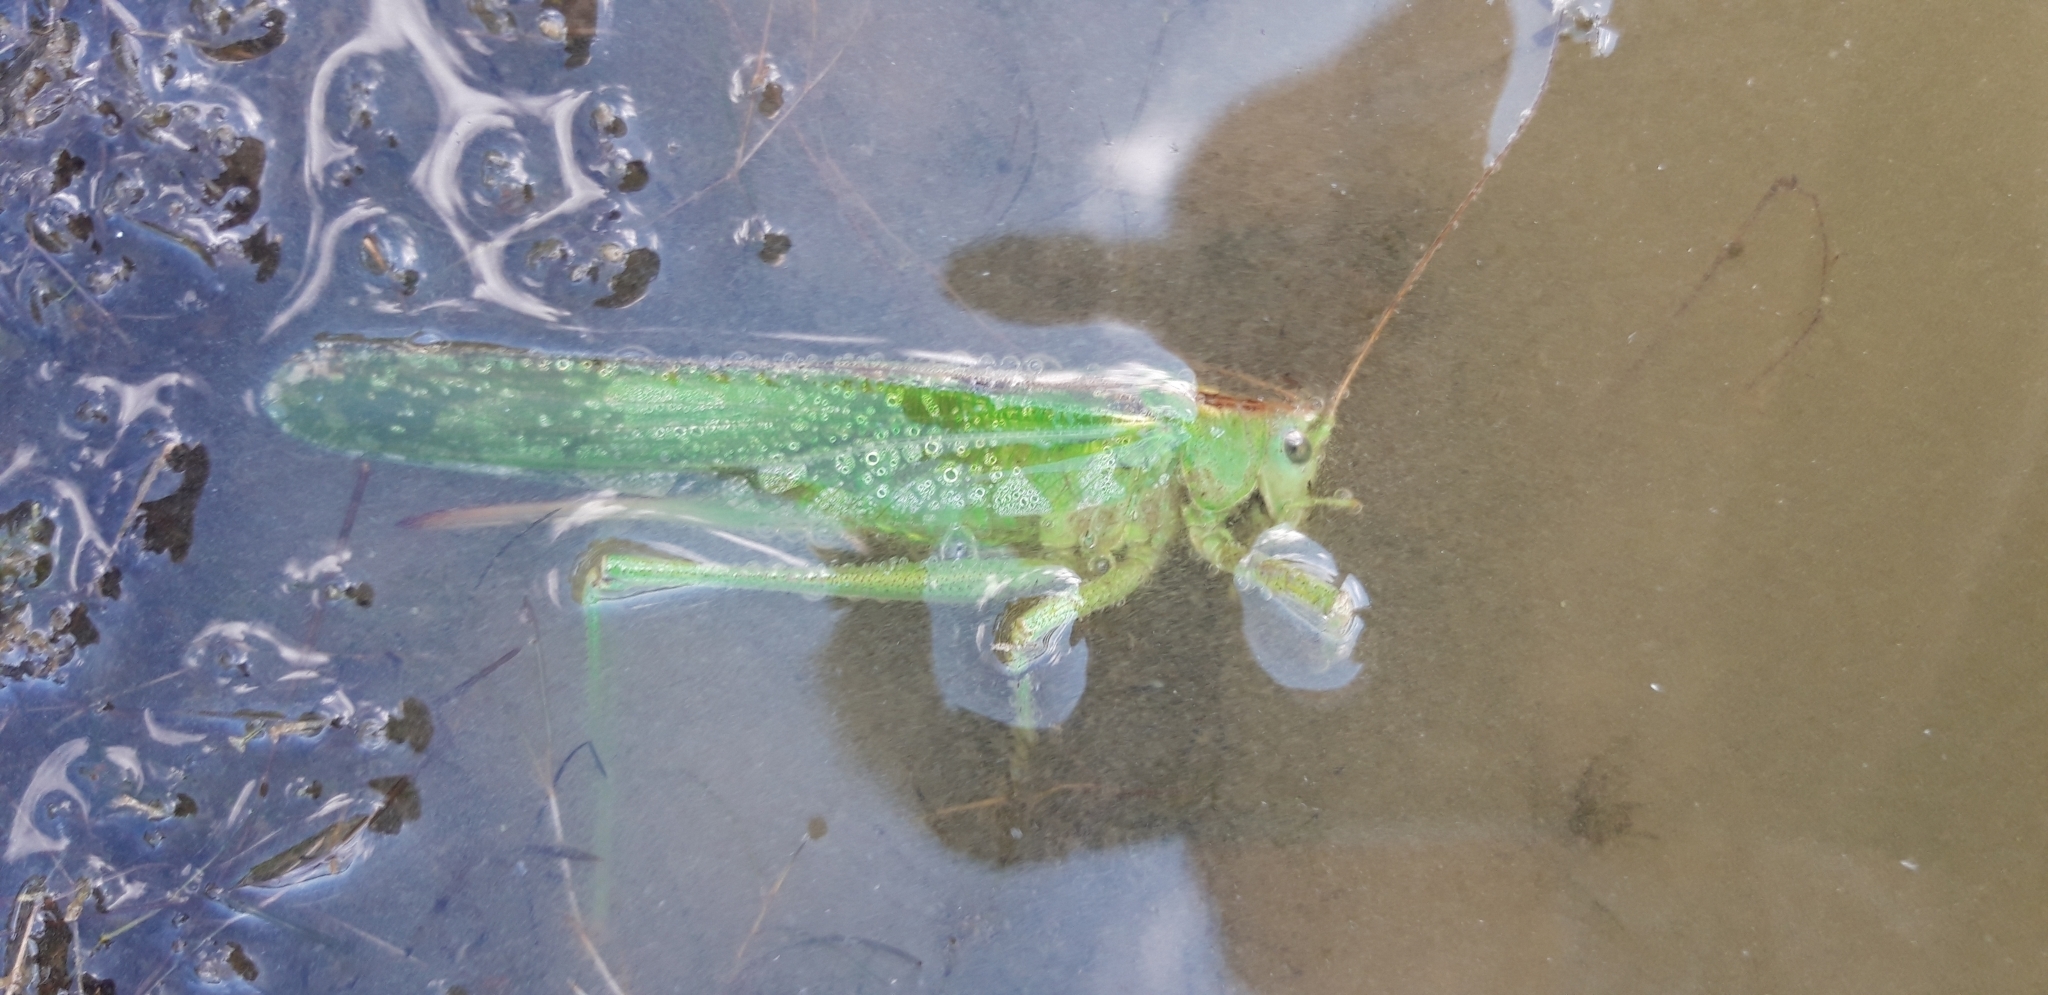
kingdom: Animalia
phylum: Arthropoda
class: Insecta
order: Orthoptera
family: Tettigoniidae
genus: Tettigonia
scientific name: Tettigonia viridissima
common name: Great green bush-cricket
